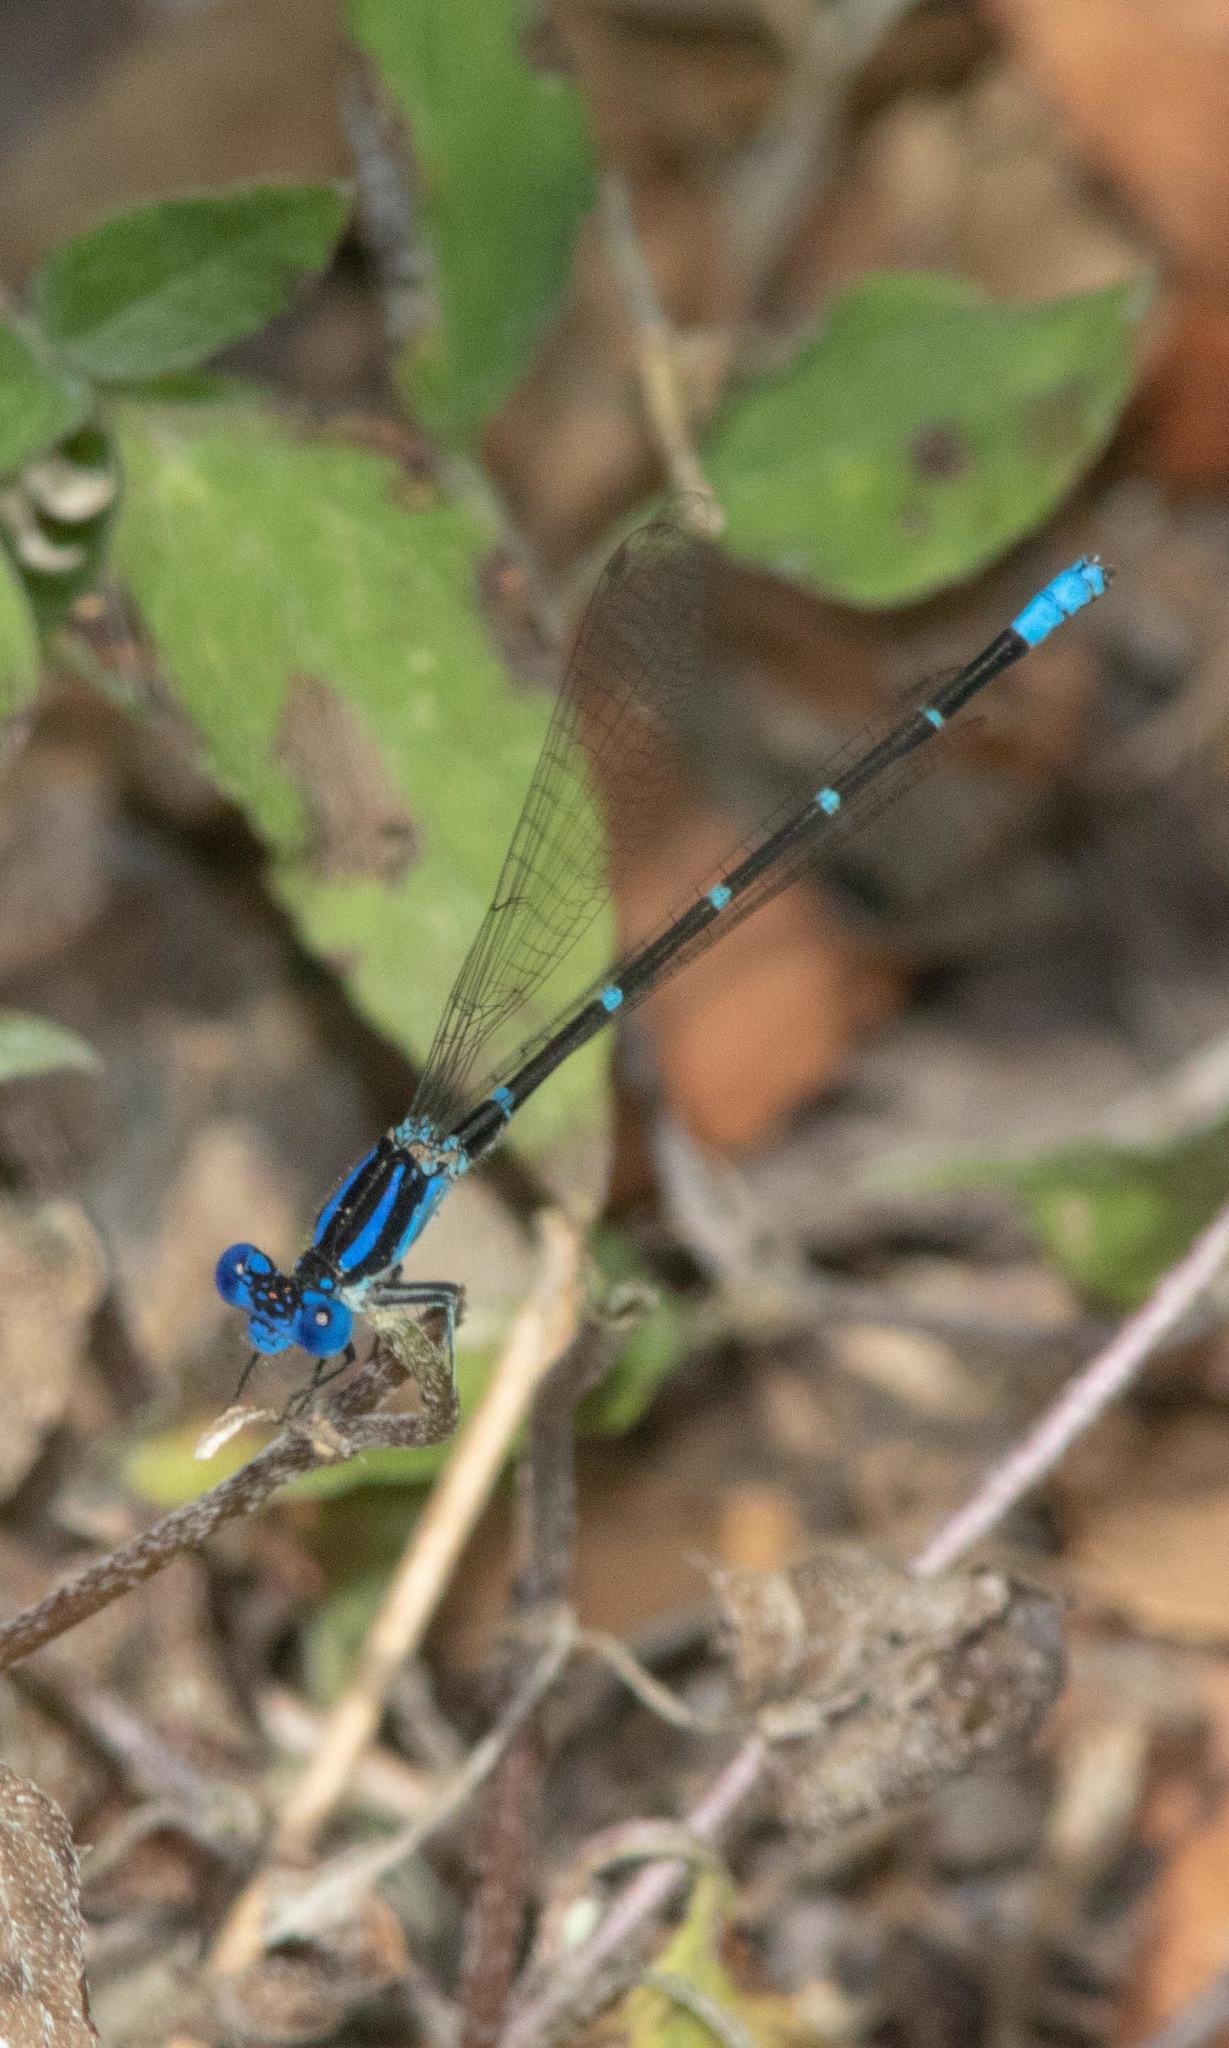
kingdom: Animalia
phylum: Arthropoda
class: Insecta
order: Odonata
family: Coenagrionidae
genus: Argia
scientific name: Argia sedula
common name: Blue-ringed dancer
